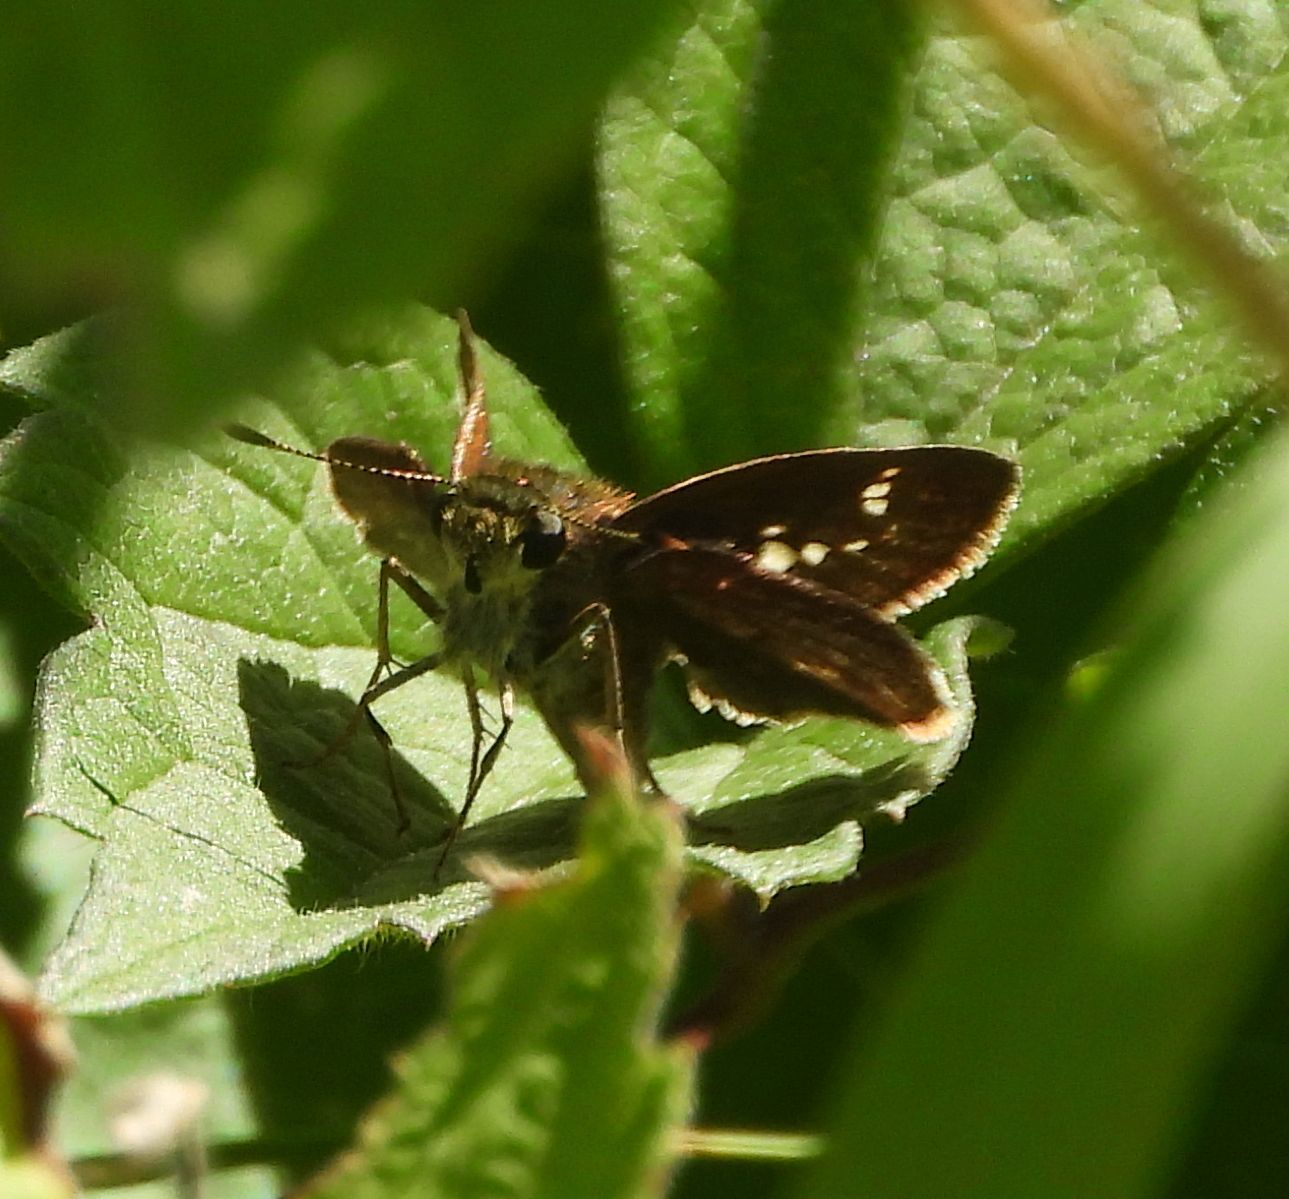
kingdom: Animalia
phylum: Arthropoda
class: Insecta
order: Lepidoptera
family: Hesperiidae
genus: Vernia
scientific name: Vernia verna
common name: Little glassywing
